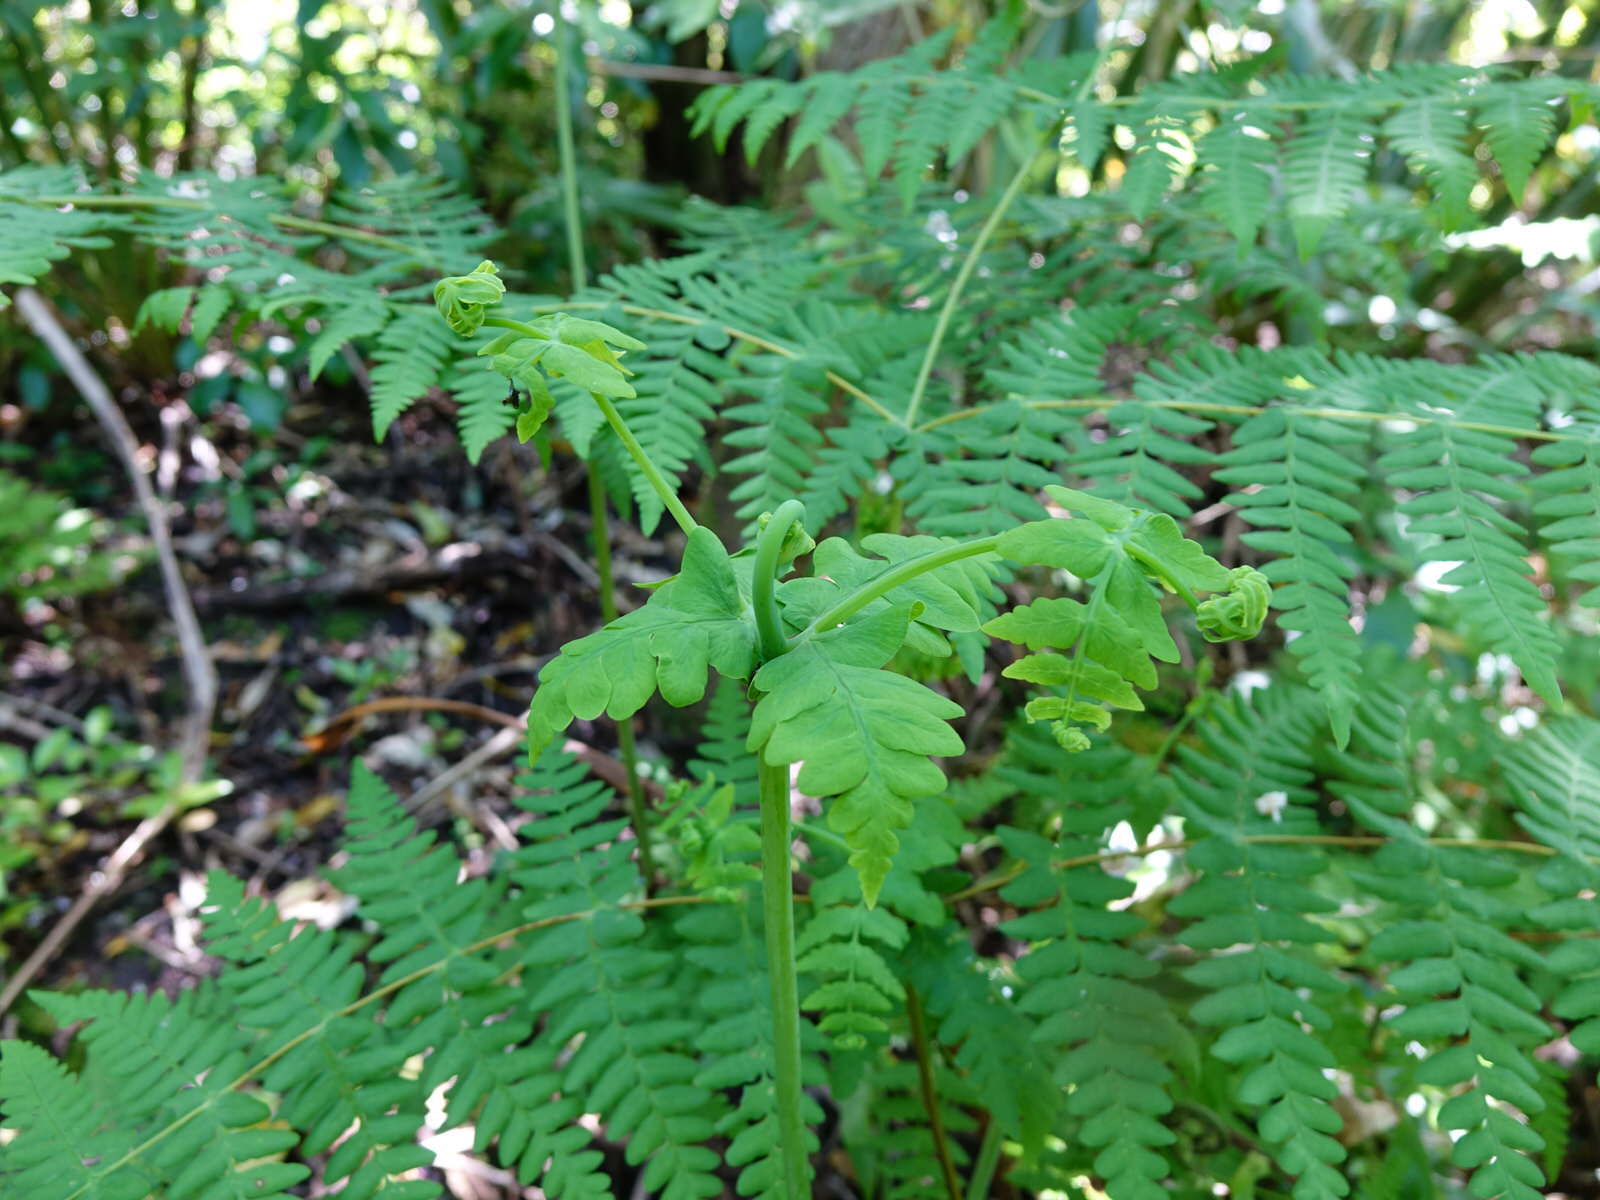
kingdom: Plantae
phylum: Tracheophyta
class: Polypodiopsida
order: Polypodiales
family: Dennstaedtiaceae
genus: Histiopteris
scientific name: Histiopteris incisa
